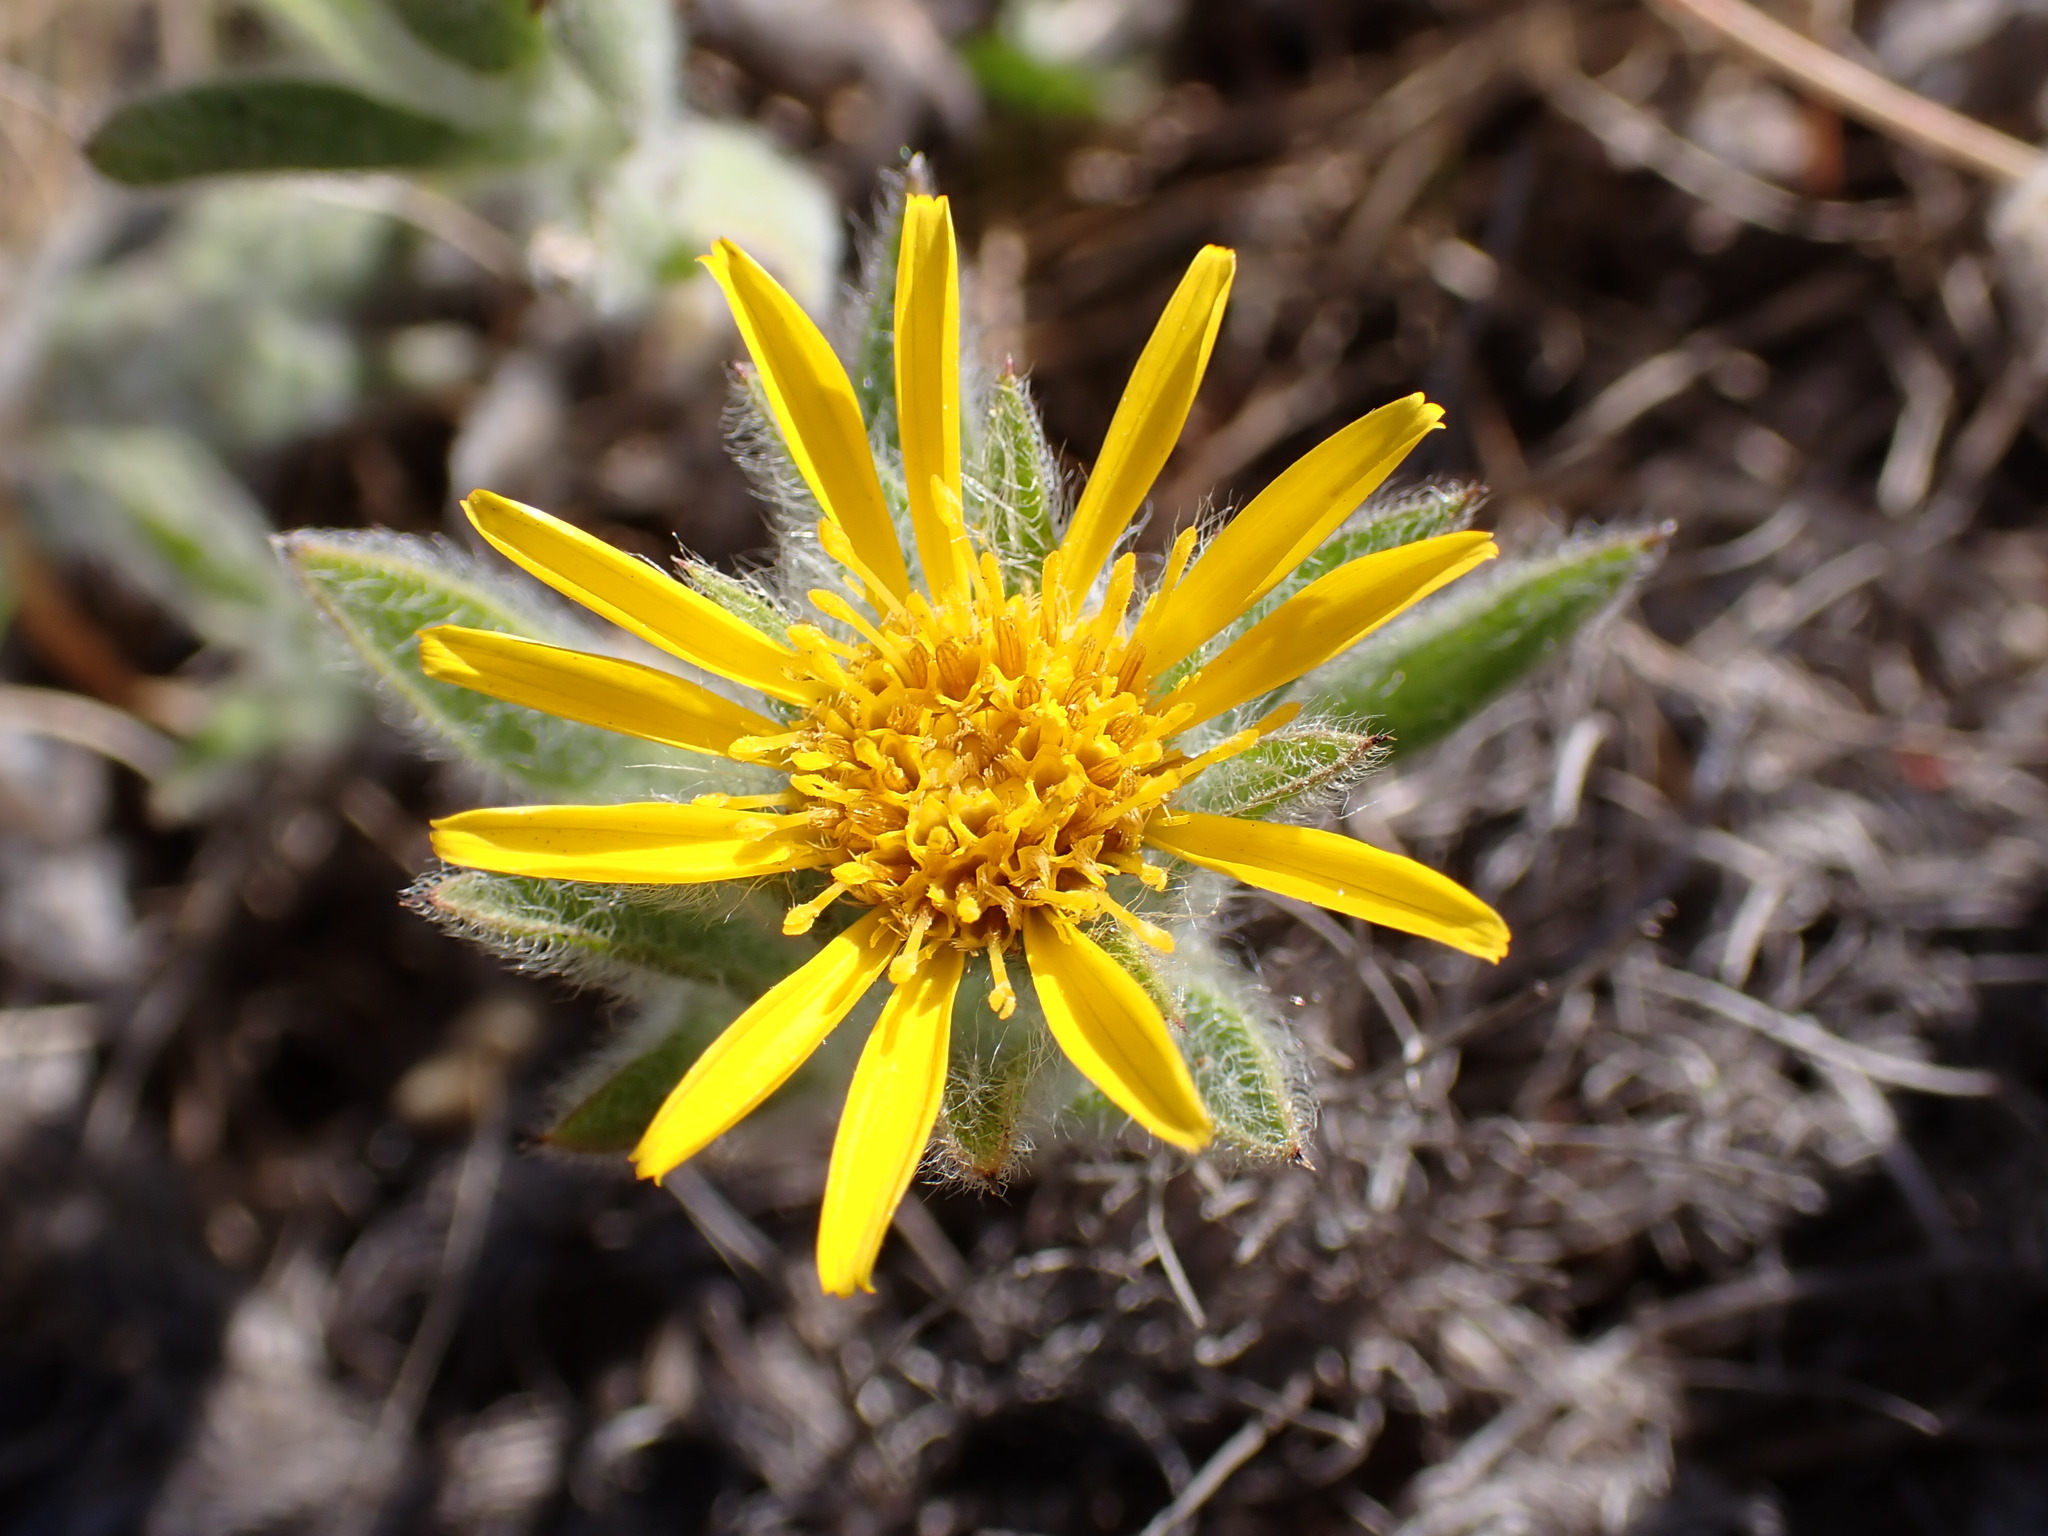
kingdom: Plantae
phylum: Tracheophyta
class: Magnoliopsida
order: Asterales
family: Asteraceae
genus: Heterotheca
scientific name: Heterotheca sessiliflora
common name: Sessile-flower golden-aster
